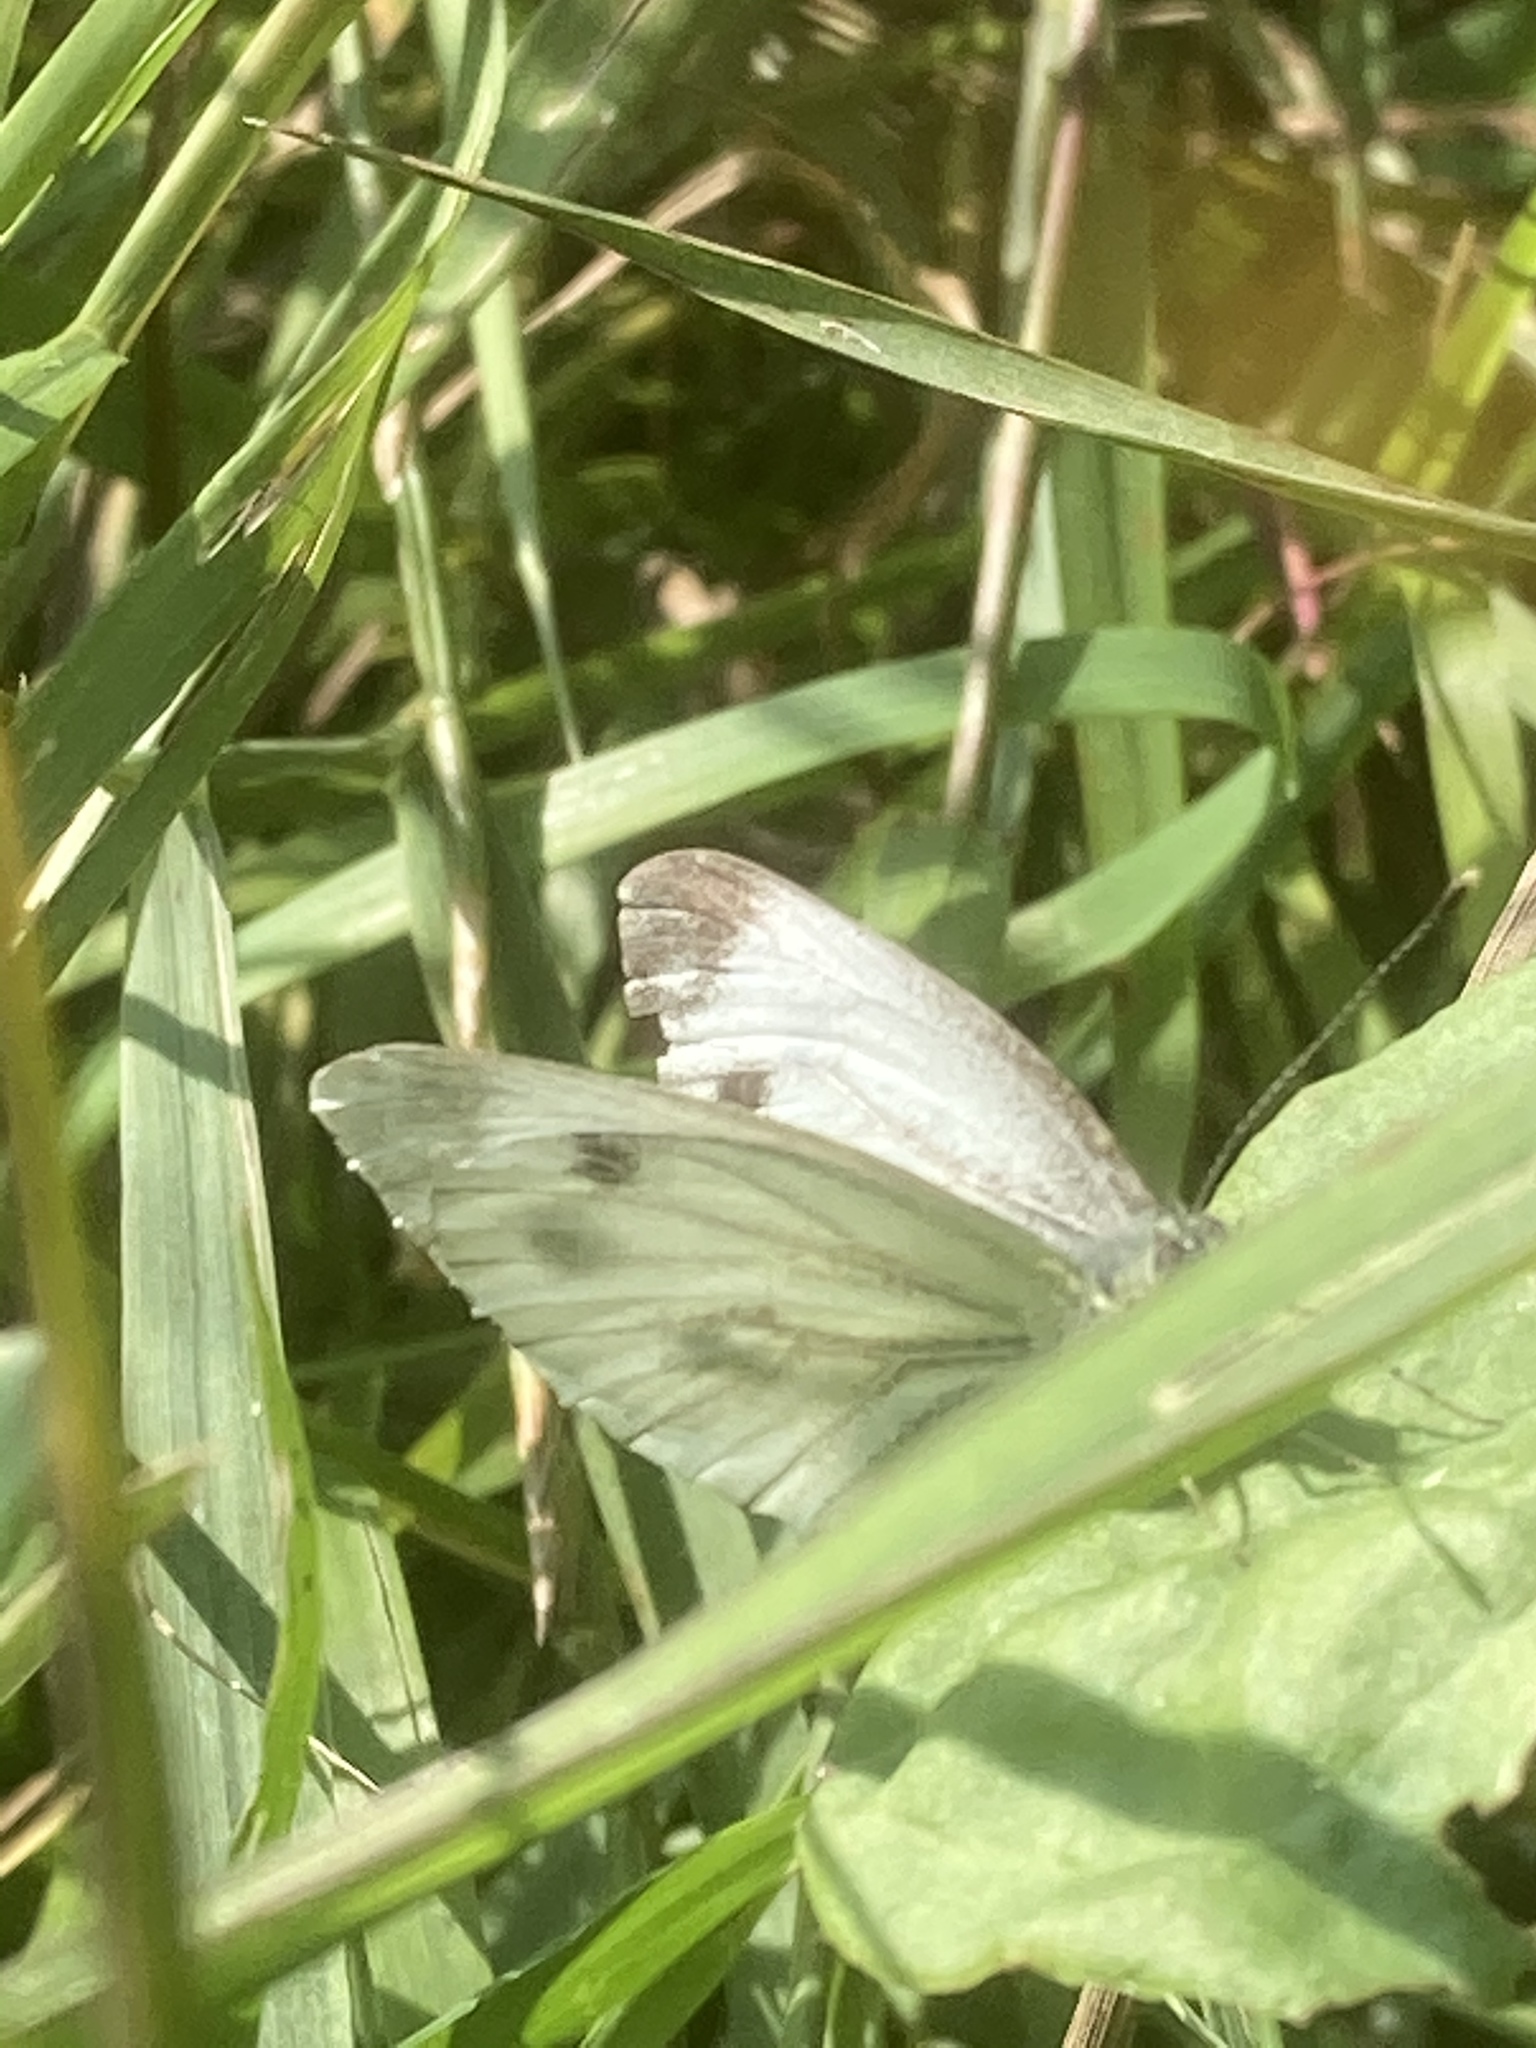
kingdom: Animalia
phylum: Arthropoda
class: Insecta
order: Lepidoptera
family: Pieridae
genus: Pieris
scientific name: Pieris napi
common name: Green-veined white
